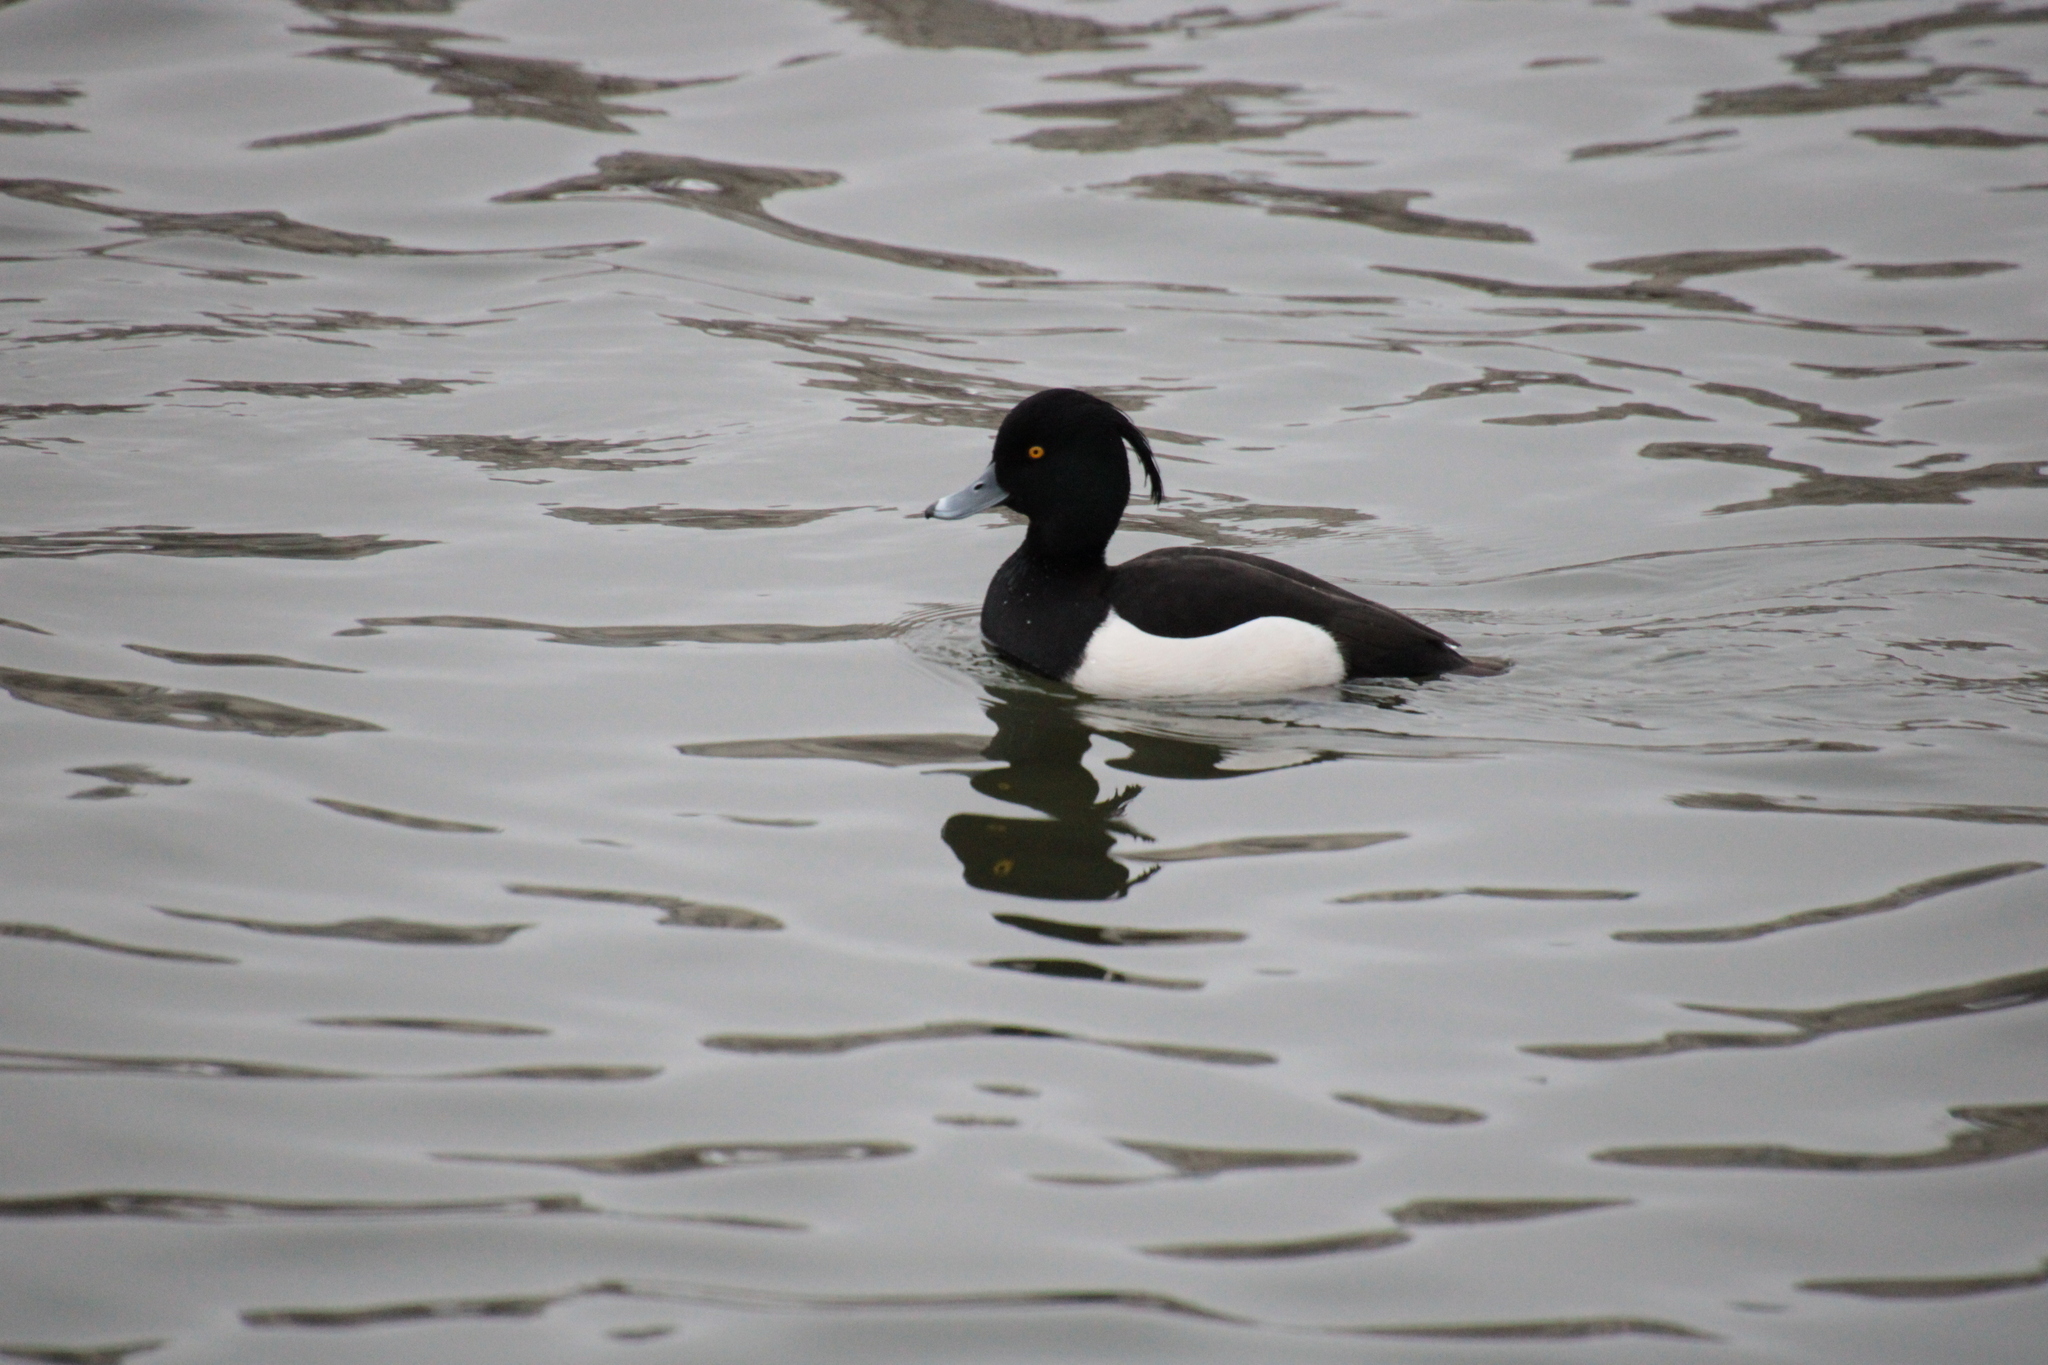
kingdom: Animalia
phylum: Chordata
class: Aves
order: Anseriformes
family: Anatidae
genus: Aythya
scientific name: Aythya fuligula
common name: Tufted duck
